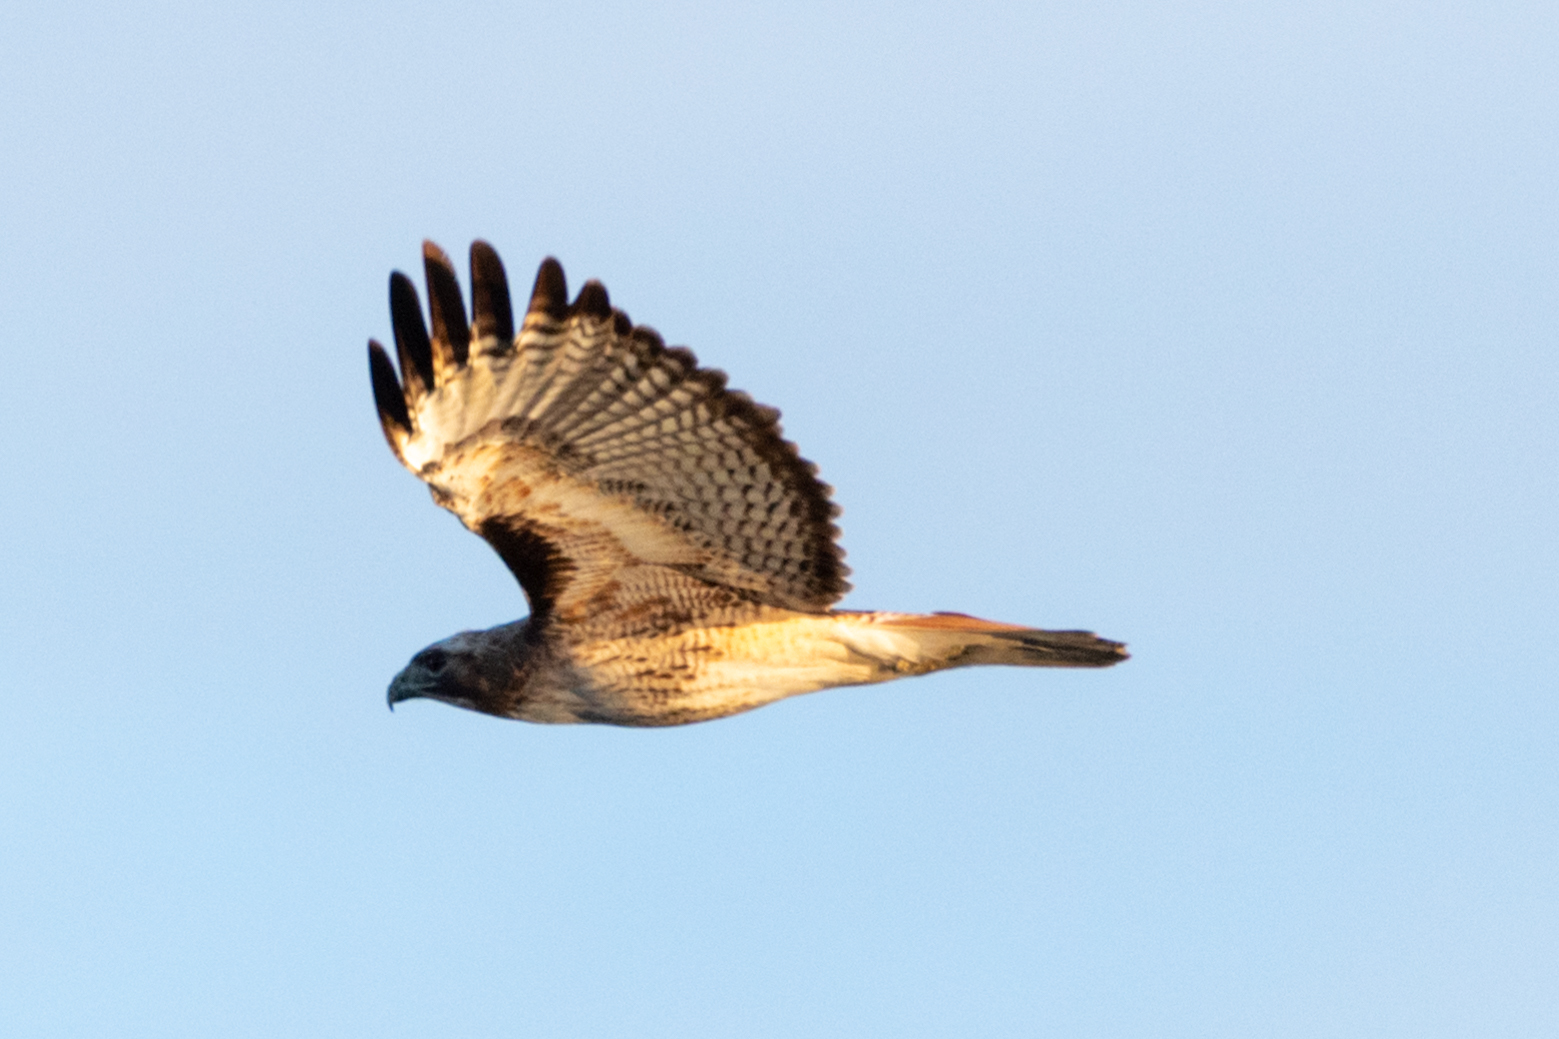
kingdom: Animalia
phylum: Chordata
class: Aves
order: Accipitriformes
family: Accipitridae
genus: Buteo
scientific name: Buteo jamaicensis
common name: Red-tailed hawk
